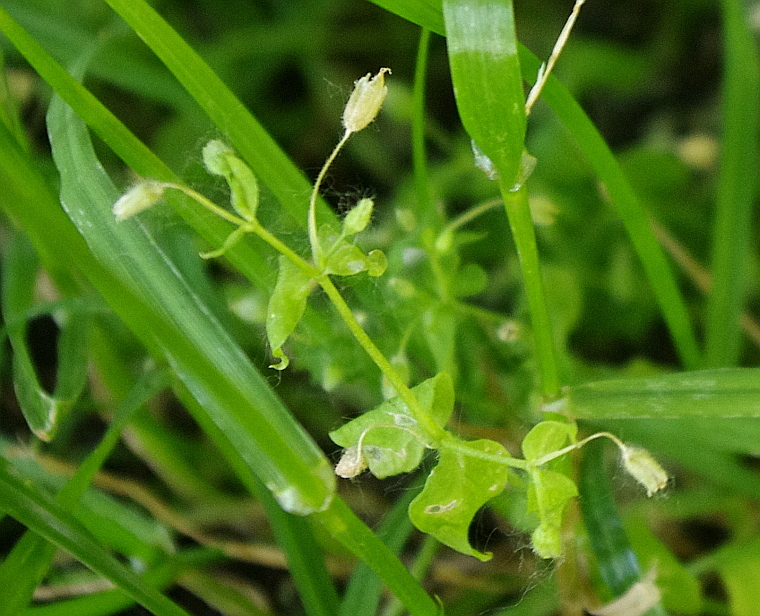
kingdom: Plantae
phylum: Tracheophyta
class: Magnoliopsida
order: Caryophyllales
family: Caryophyllaceae
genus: Stellaria
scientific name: Stellaria media
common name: Common chickweed
